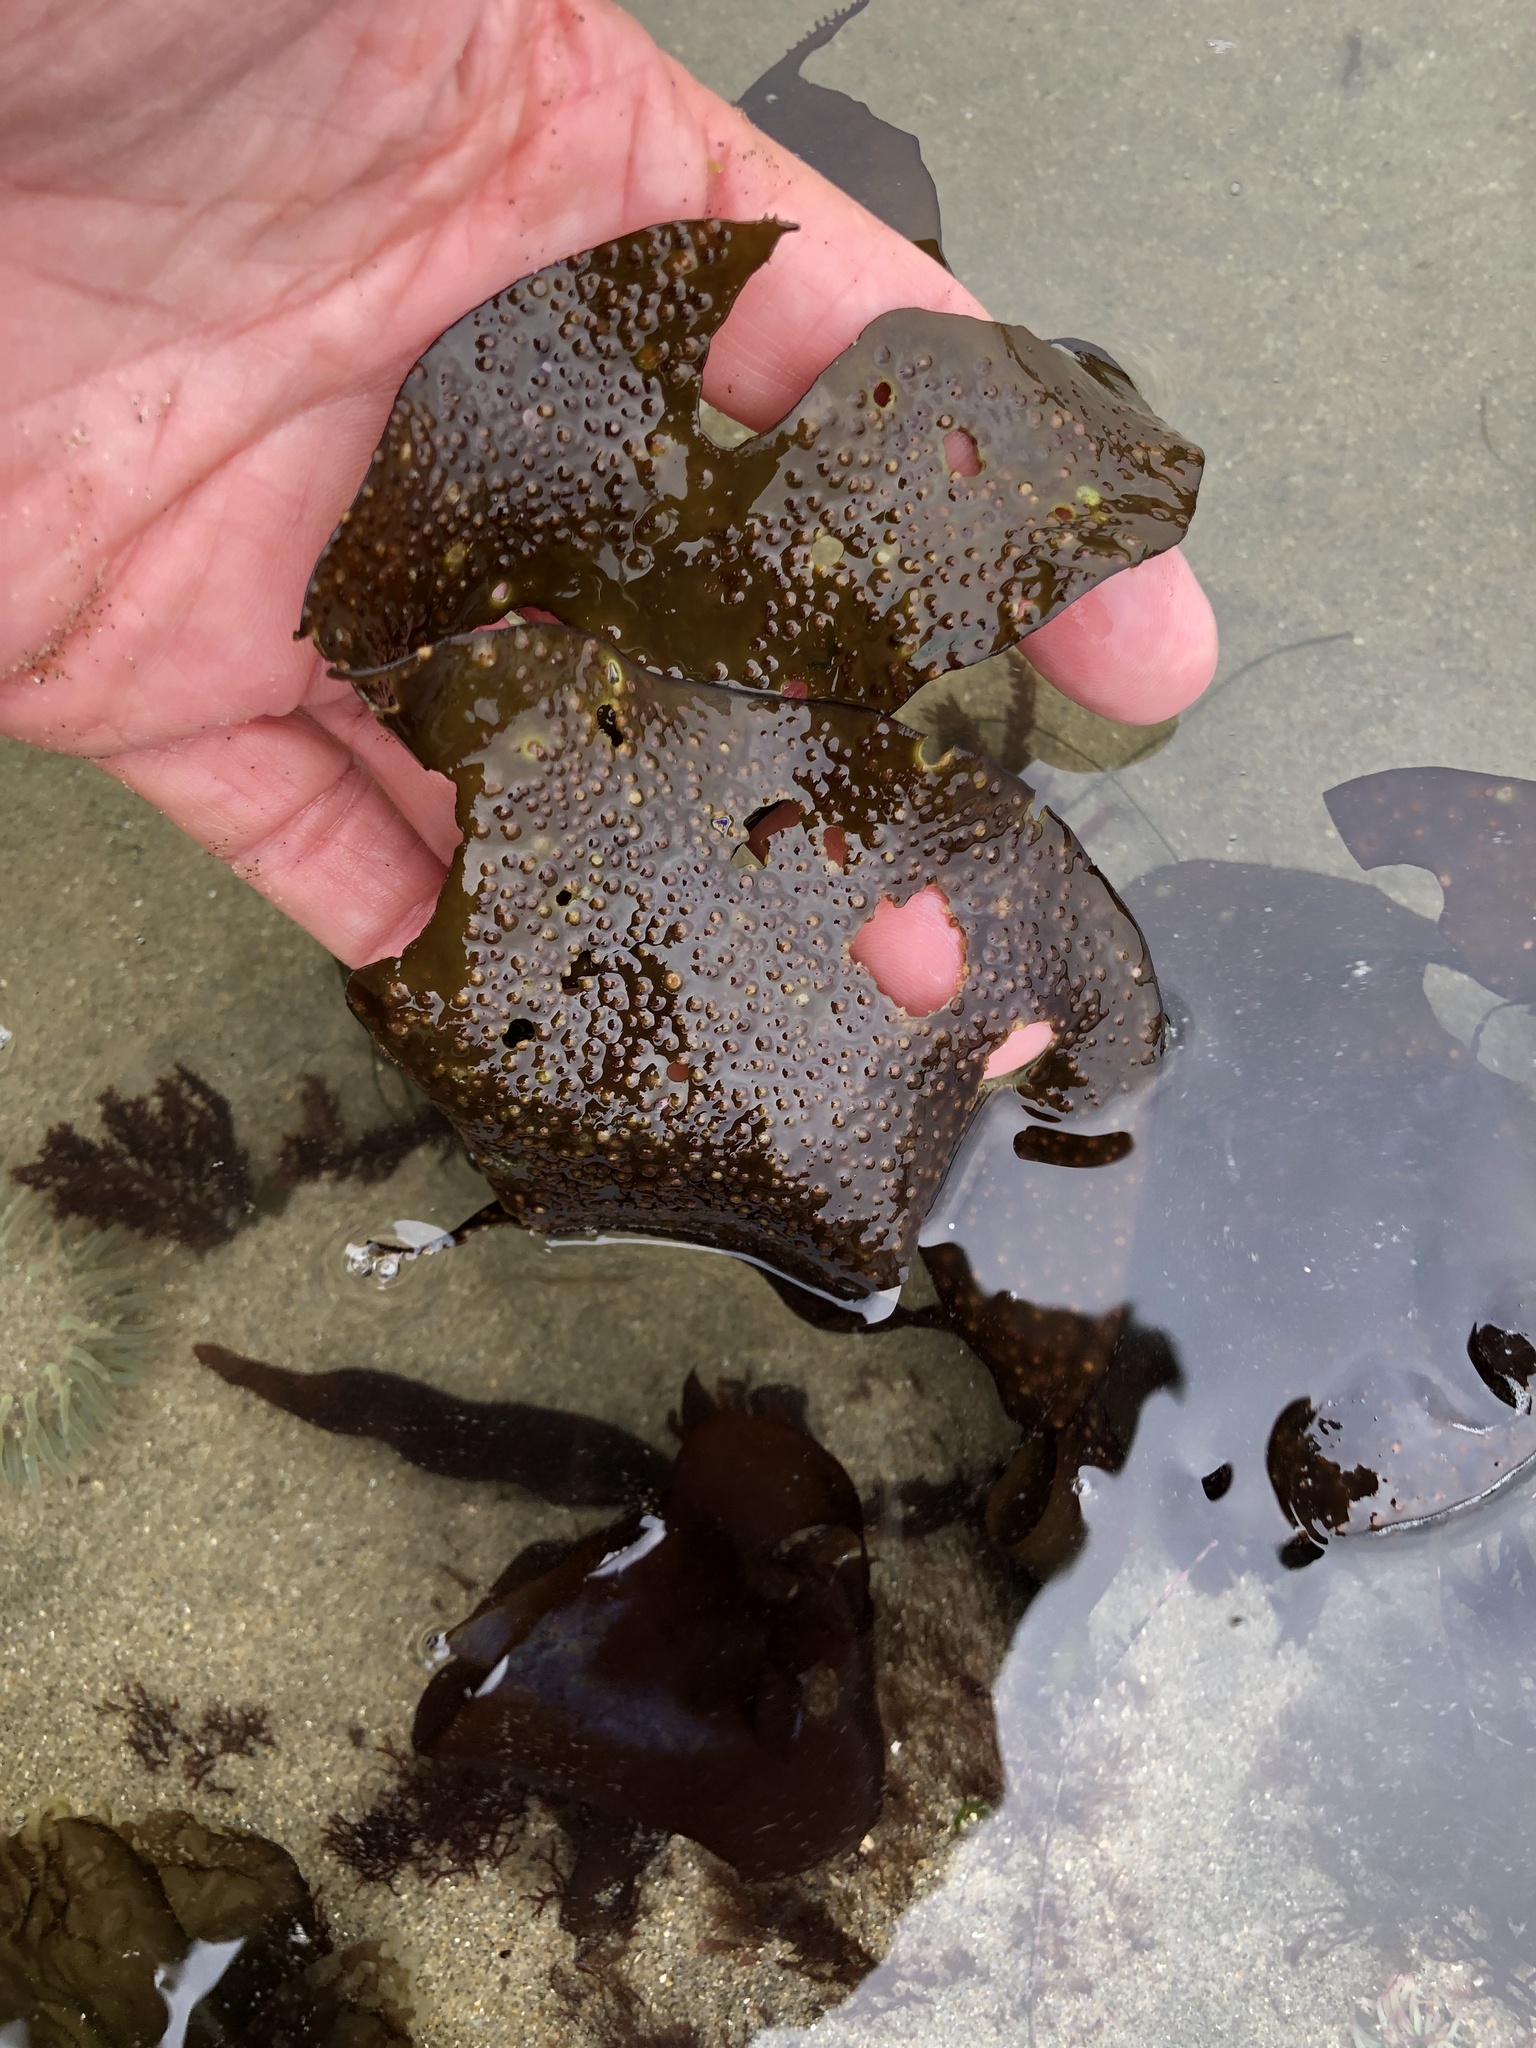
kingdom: Plantae
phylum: Rhodophyta
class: Florideophyceae
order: Gigartinales
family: Gigartinaceae
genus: Mazzaella
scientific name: Mazzaella oregona
